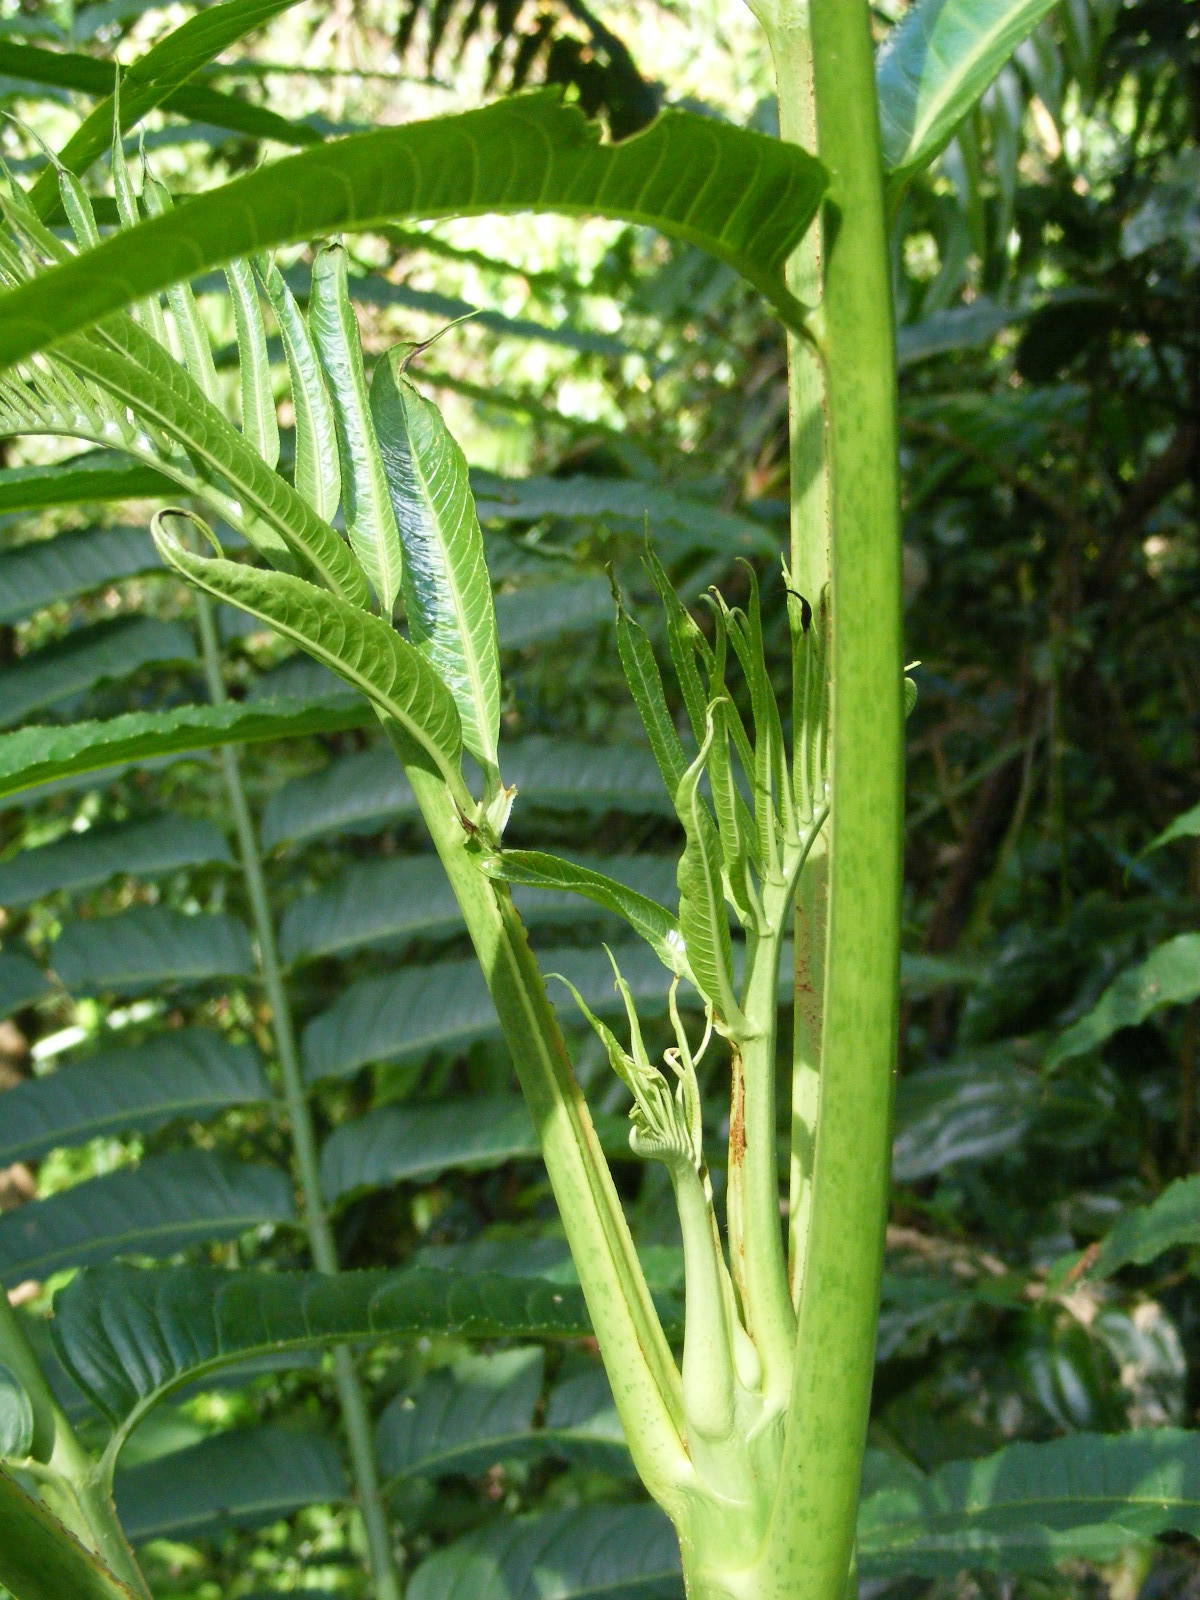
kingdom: Plantae
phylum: Tracheophyta
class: Magnoliopsida
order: Apiales
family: Araliaceae
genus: Polyscias
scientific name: Polyscias murrayi
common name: Pencil cedar
